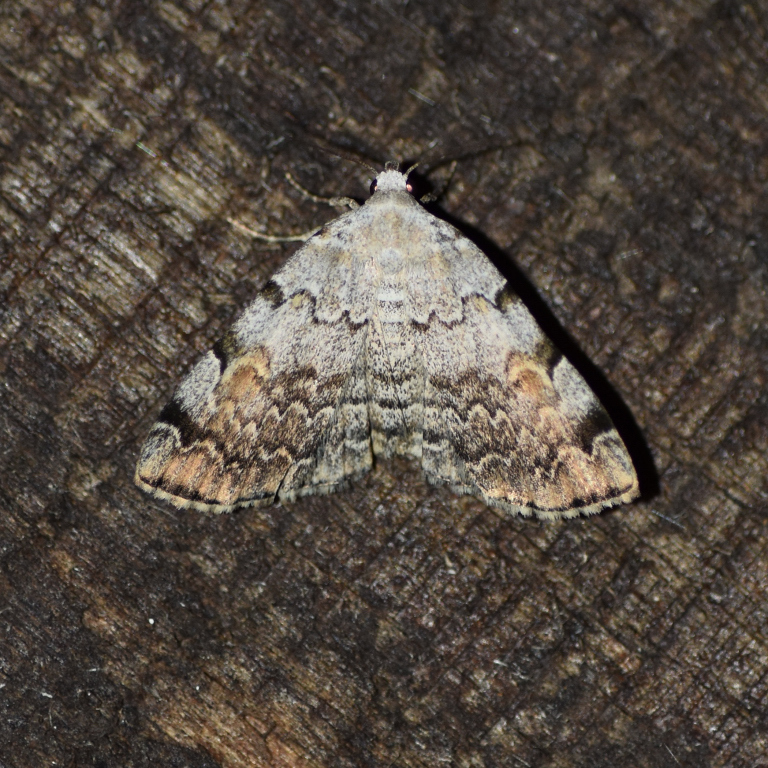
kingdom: Animalia
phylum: Arthropoda
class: Insecta
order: Lepidoptera
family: Erebidae
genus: Idia
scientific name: Idia americalis
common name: American idia moth
